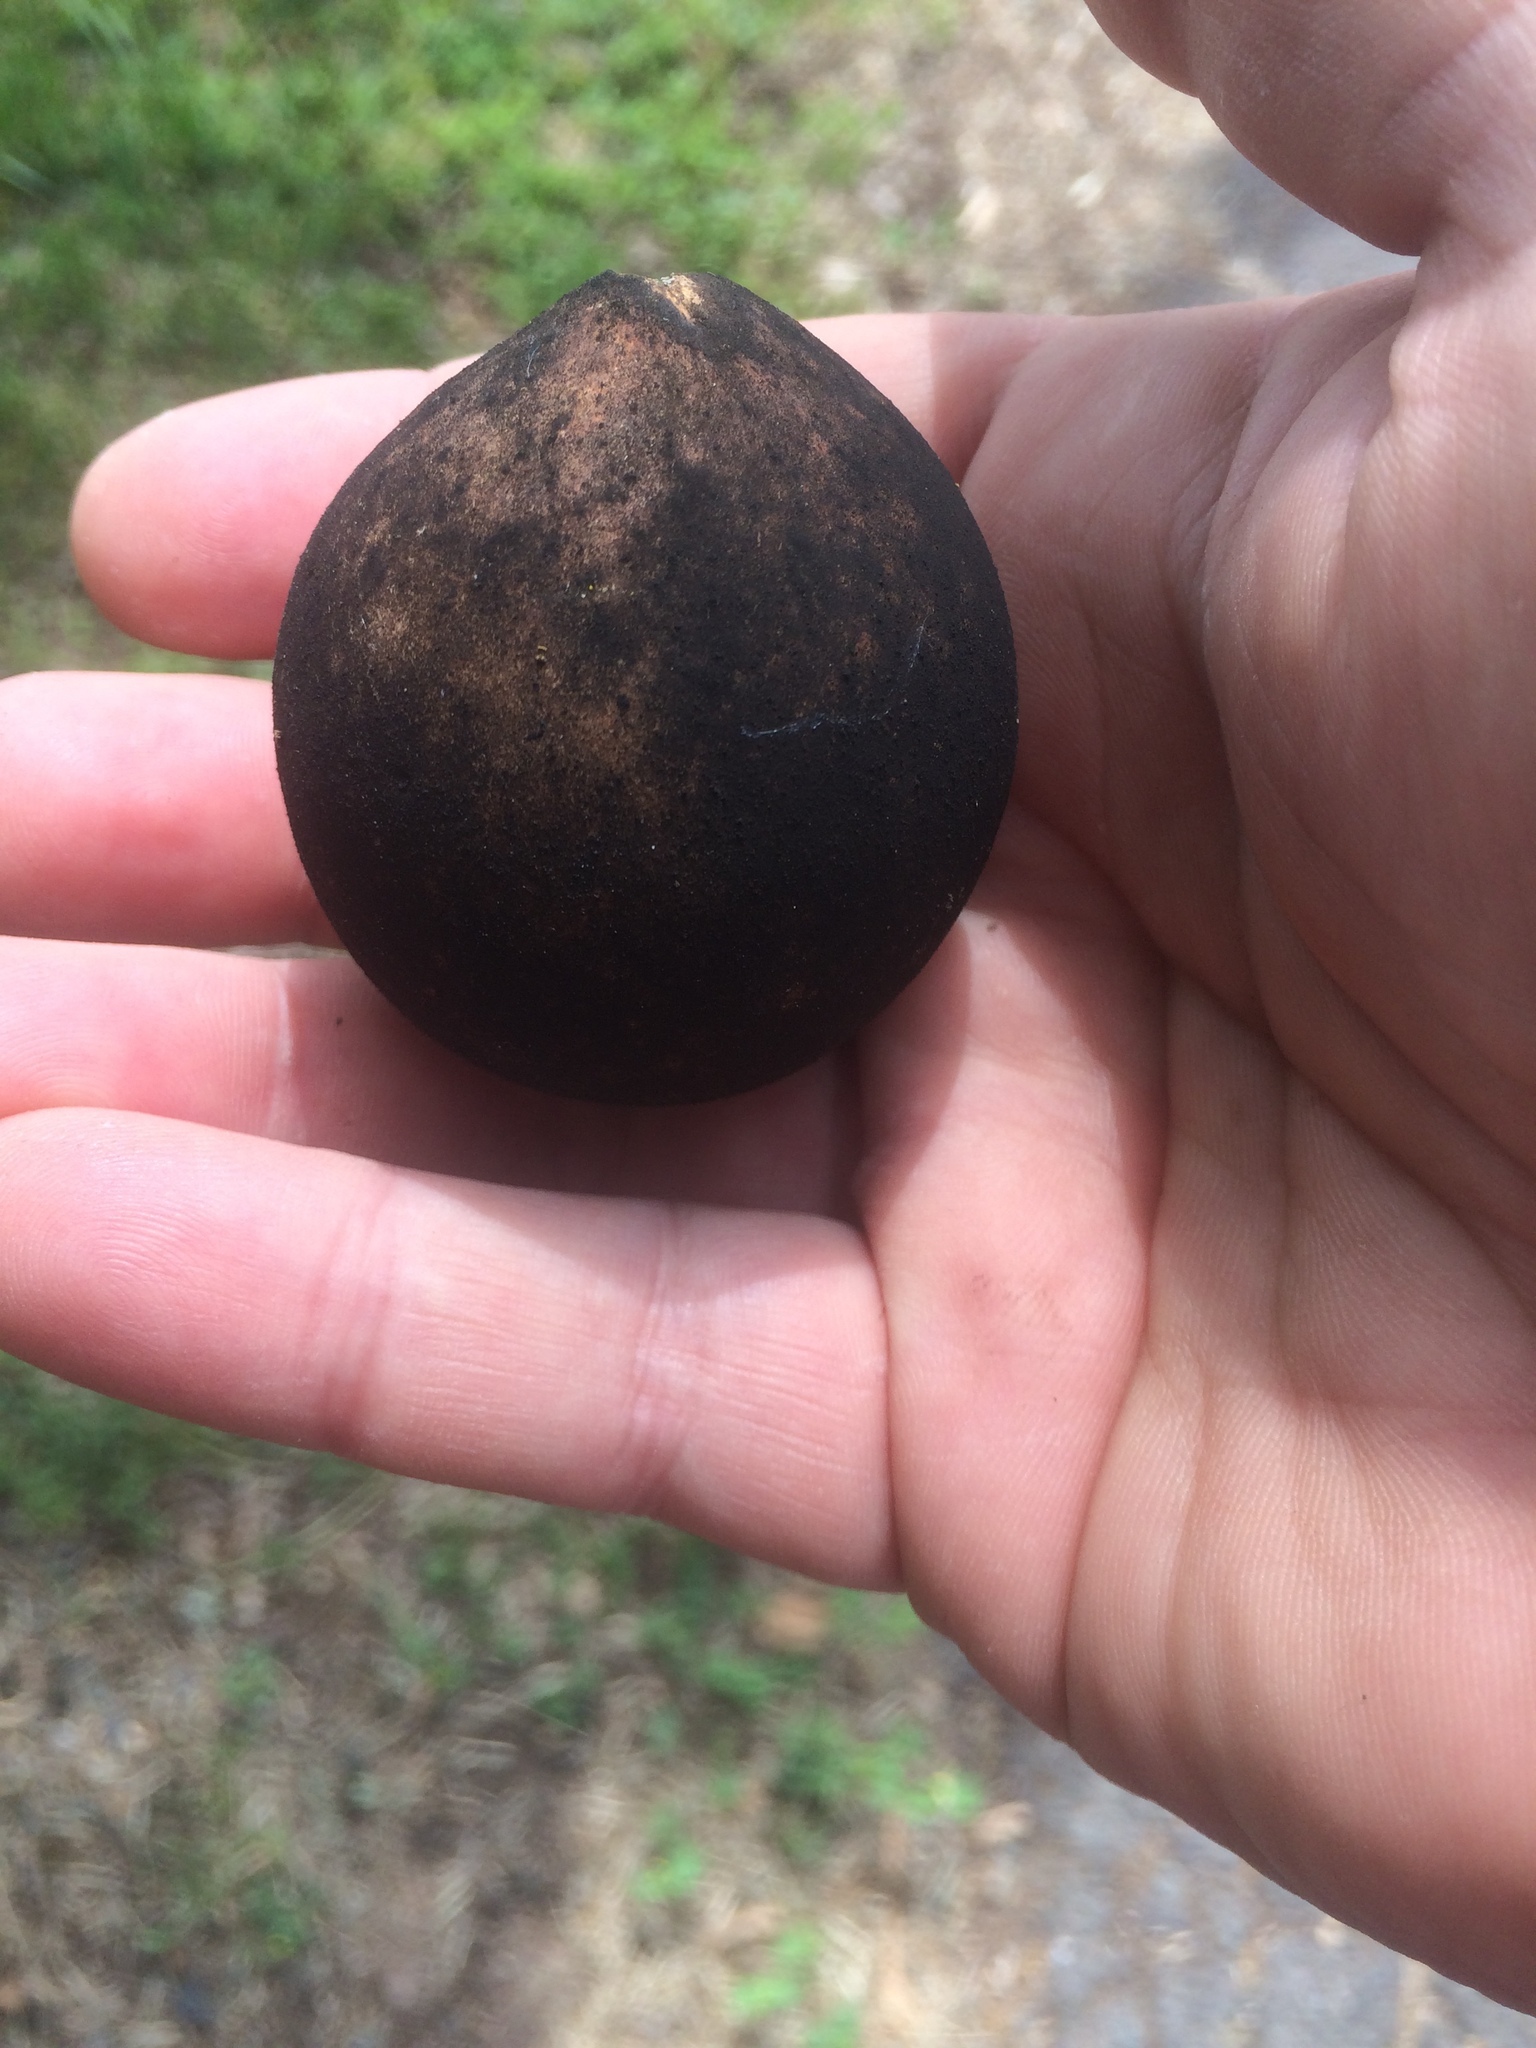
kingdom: Animalia
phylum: Arthropoda
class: Insecta
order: Hymenoptera
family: Cynipidae
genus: Andricus
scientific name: Andricus quercuscalifornicus
